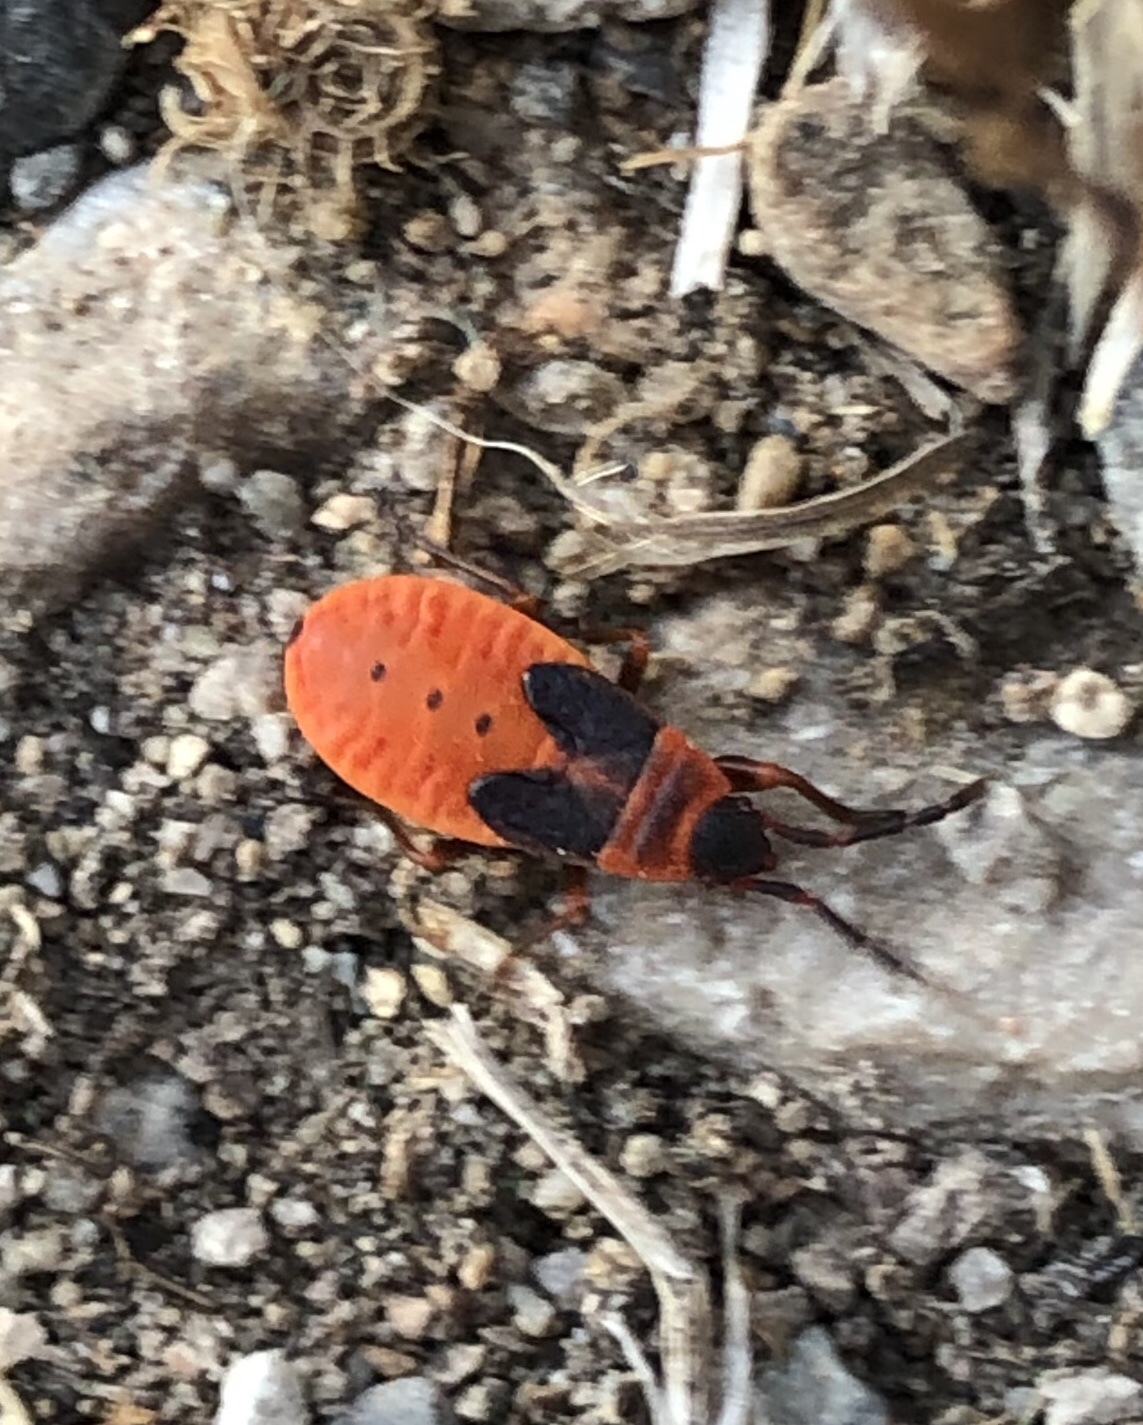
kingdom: Animalia
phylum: Arthropoda
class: Insecta
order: Hemiptera
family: Pyrrhocoridae
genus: Scantius
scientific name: Scantius aegyptius
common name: Red bug
